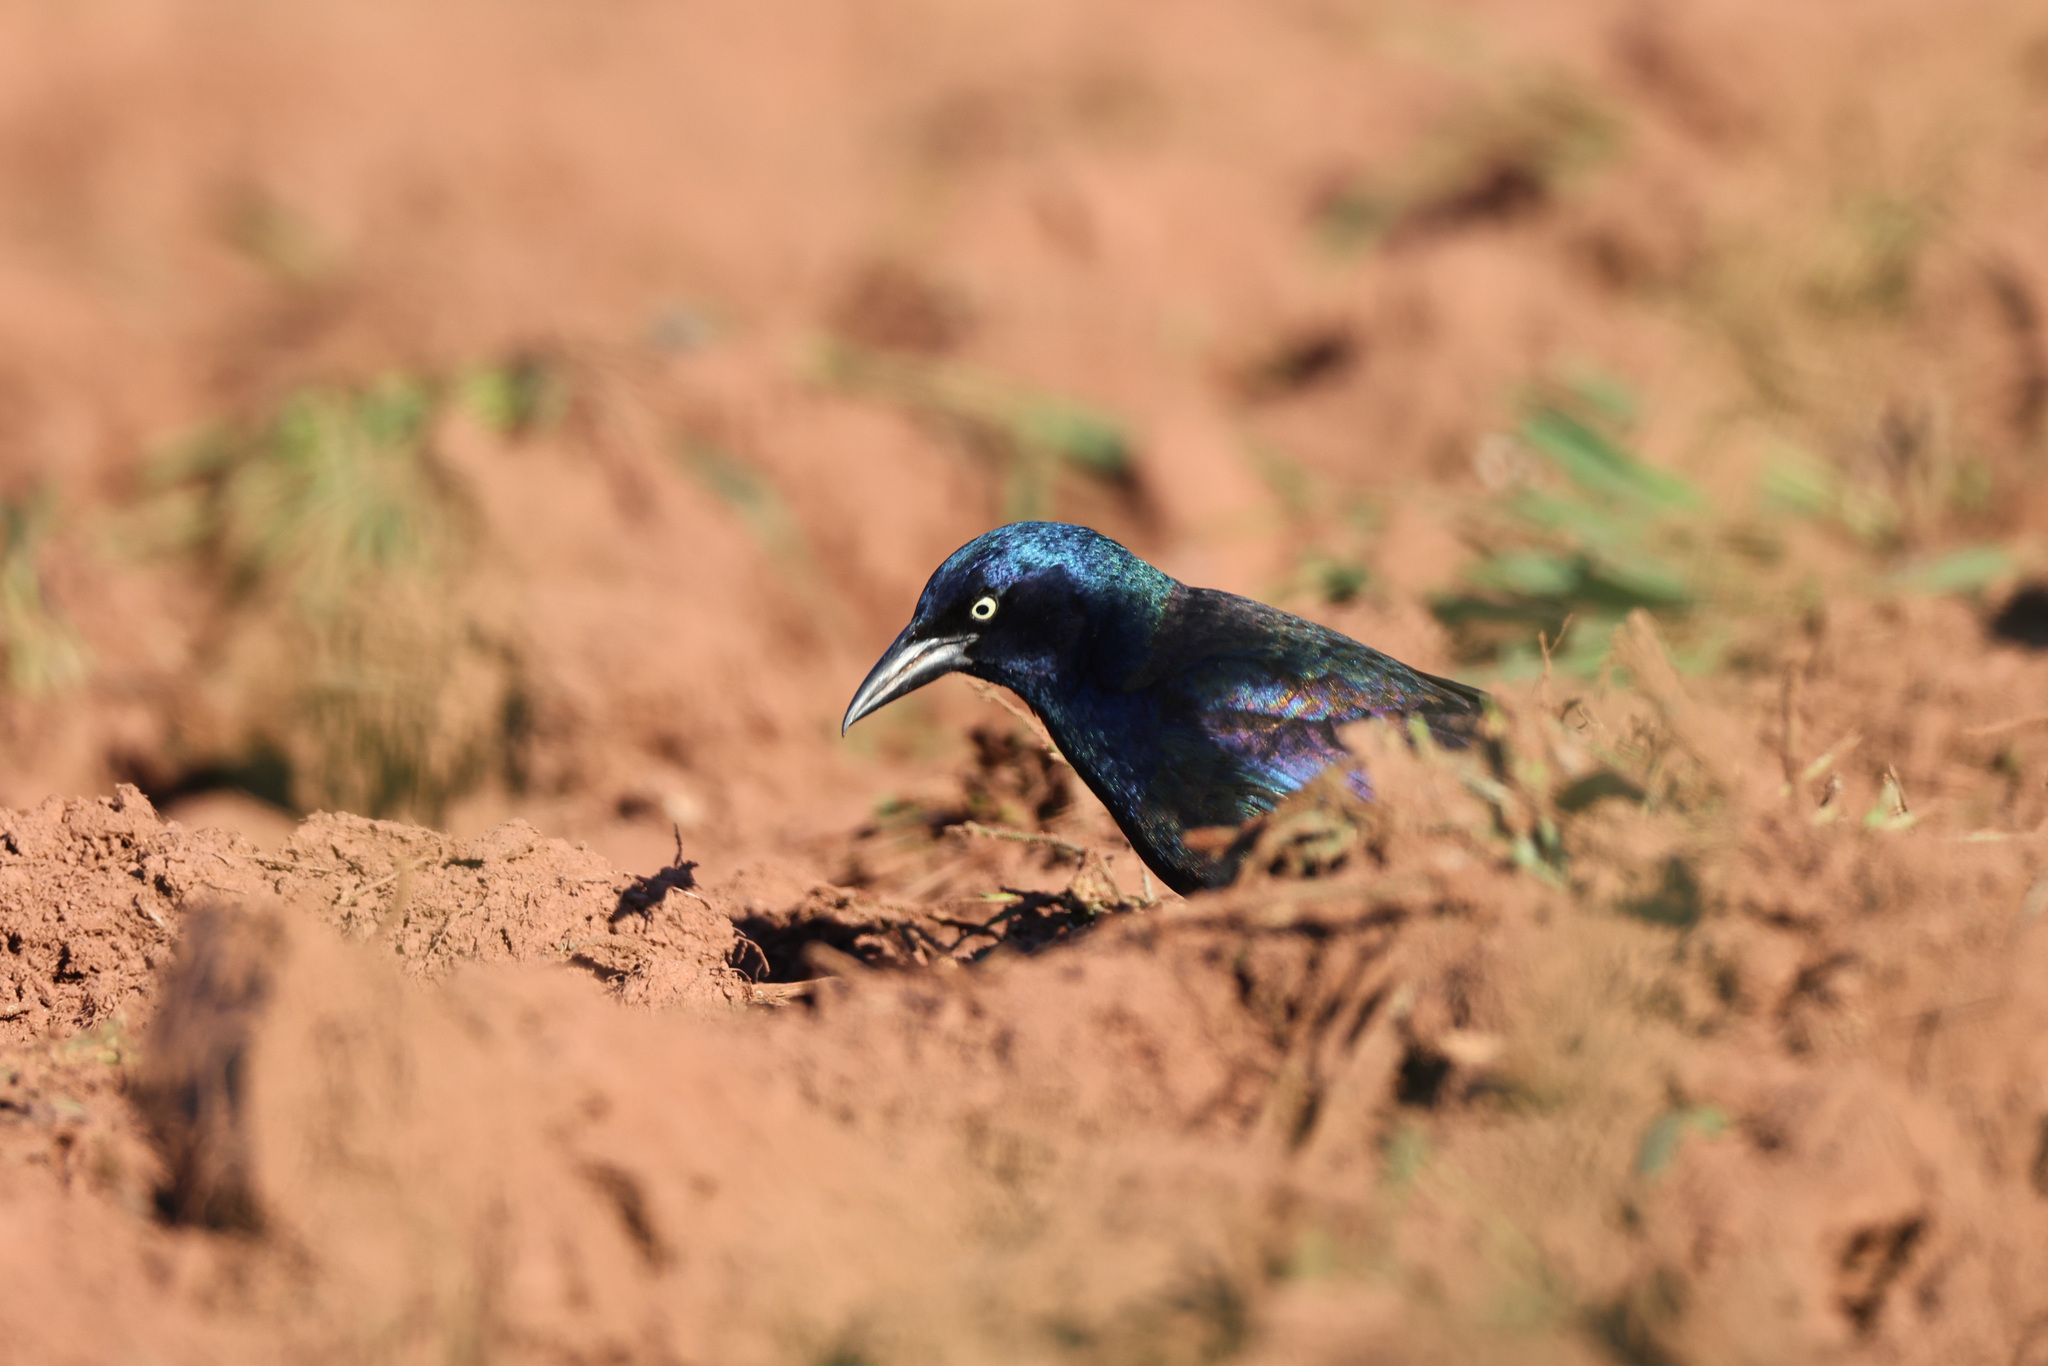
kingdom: Animalia
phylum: Chordata
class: Aves
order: Passeriformes
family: Icteridae
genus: Quiscalus
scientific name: Quiscalus quiscula
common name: Common grackle
